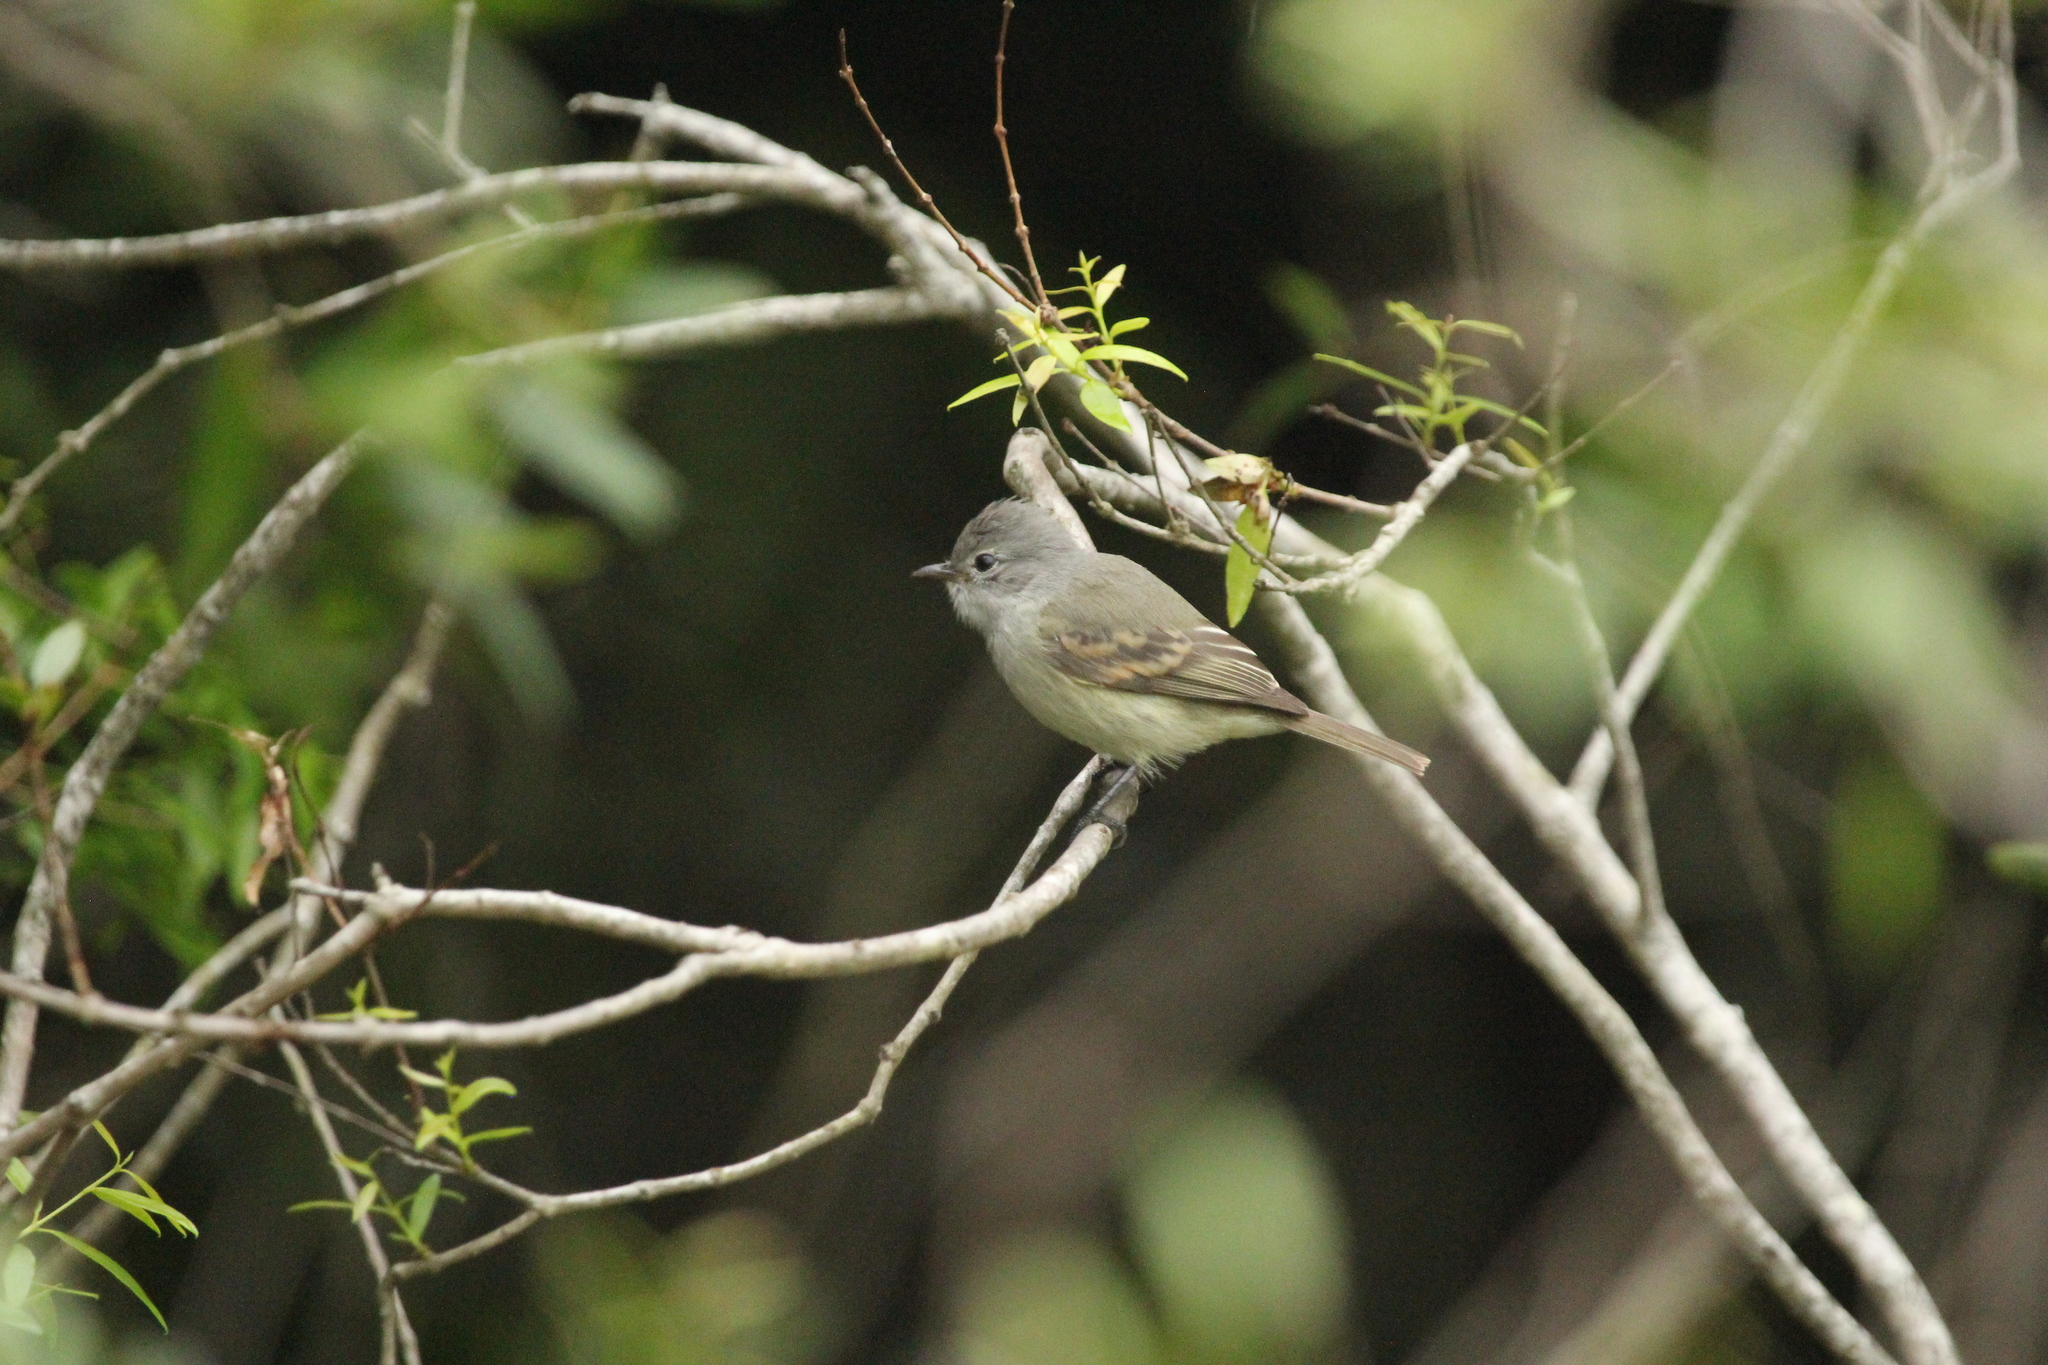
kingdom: Animalia
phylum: Chordata
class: Aves
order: Passeriformes
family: Tyrannidae
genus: Camptostoma
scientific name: Camptostoma obsoletum
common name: Southern beardless-tyrannulet
